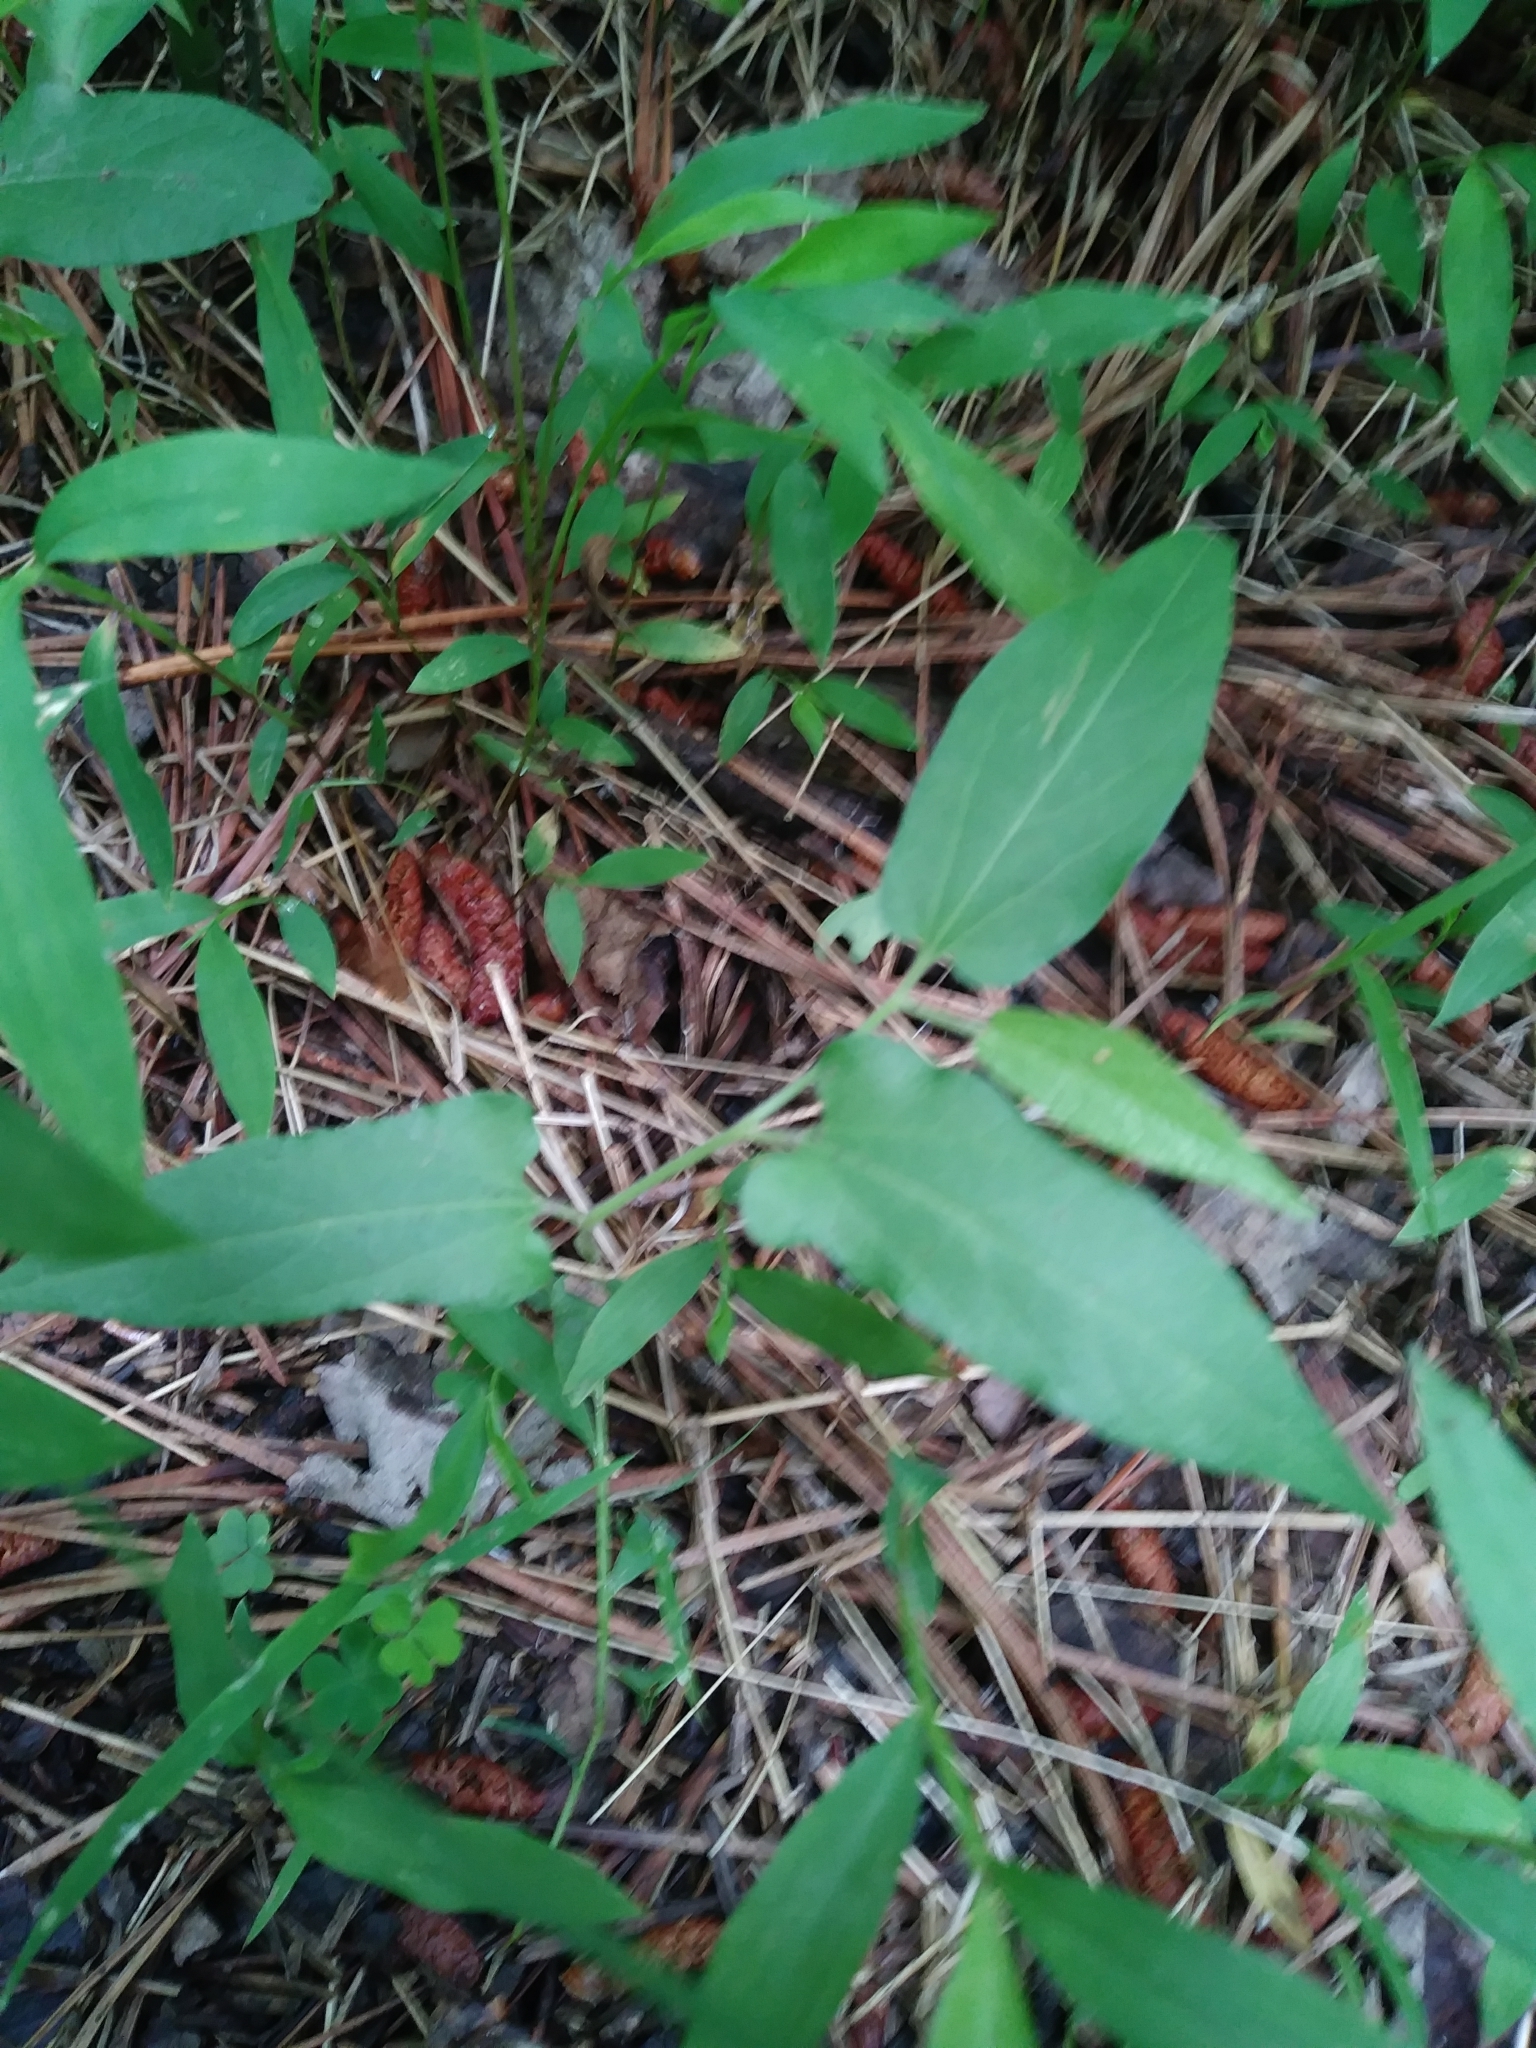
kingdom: Plantae
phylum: Tracheophyta
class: Magnoliopsida
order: Piperales
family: Aristolochiaceae
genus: Endodeca
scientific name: Endodeca serpentaria
